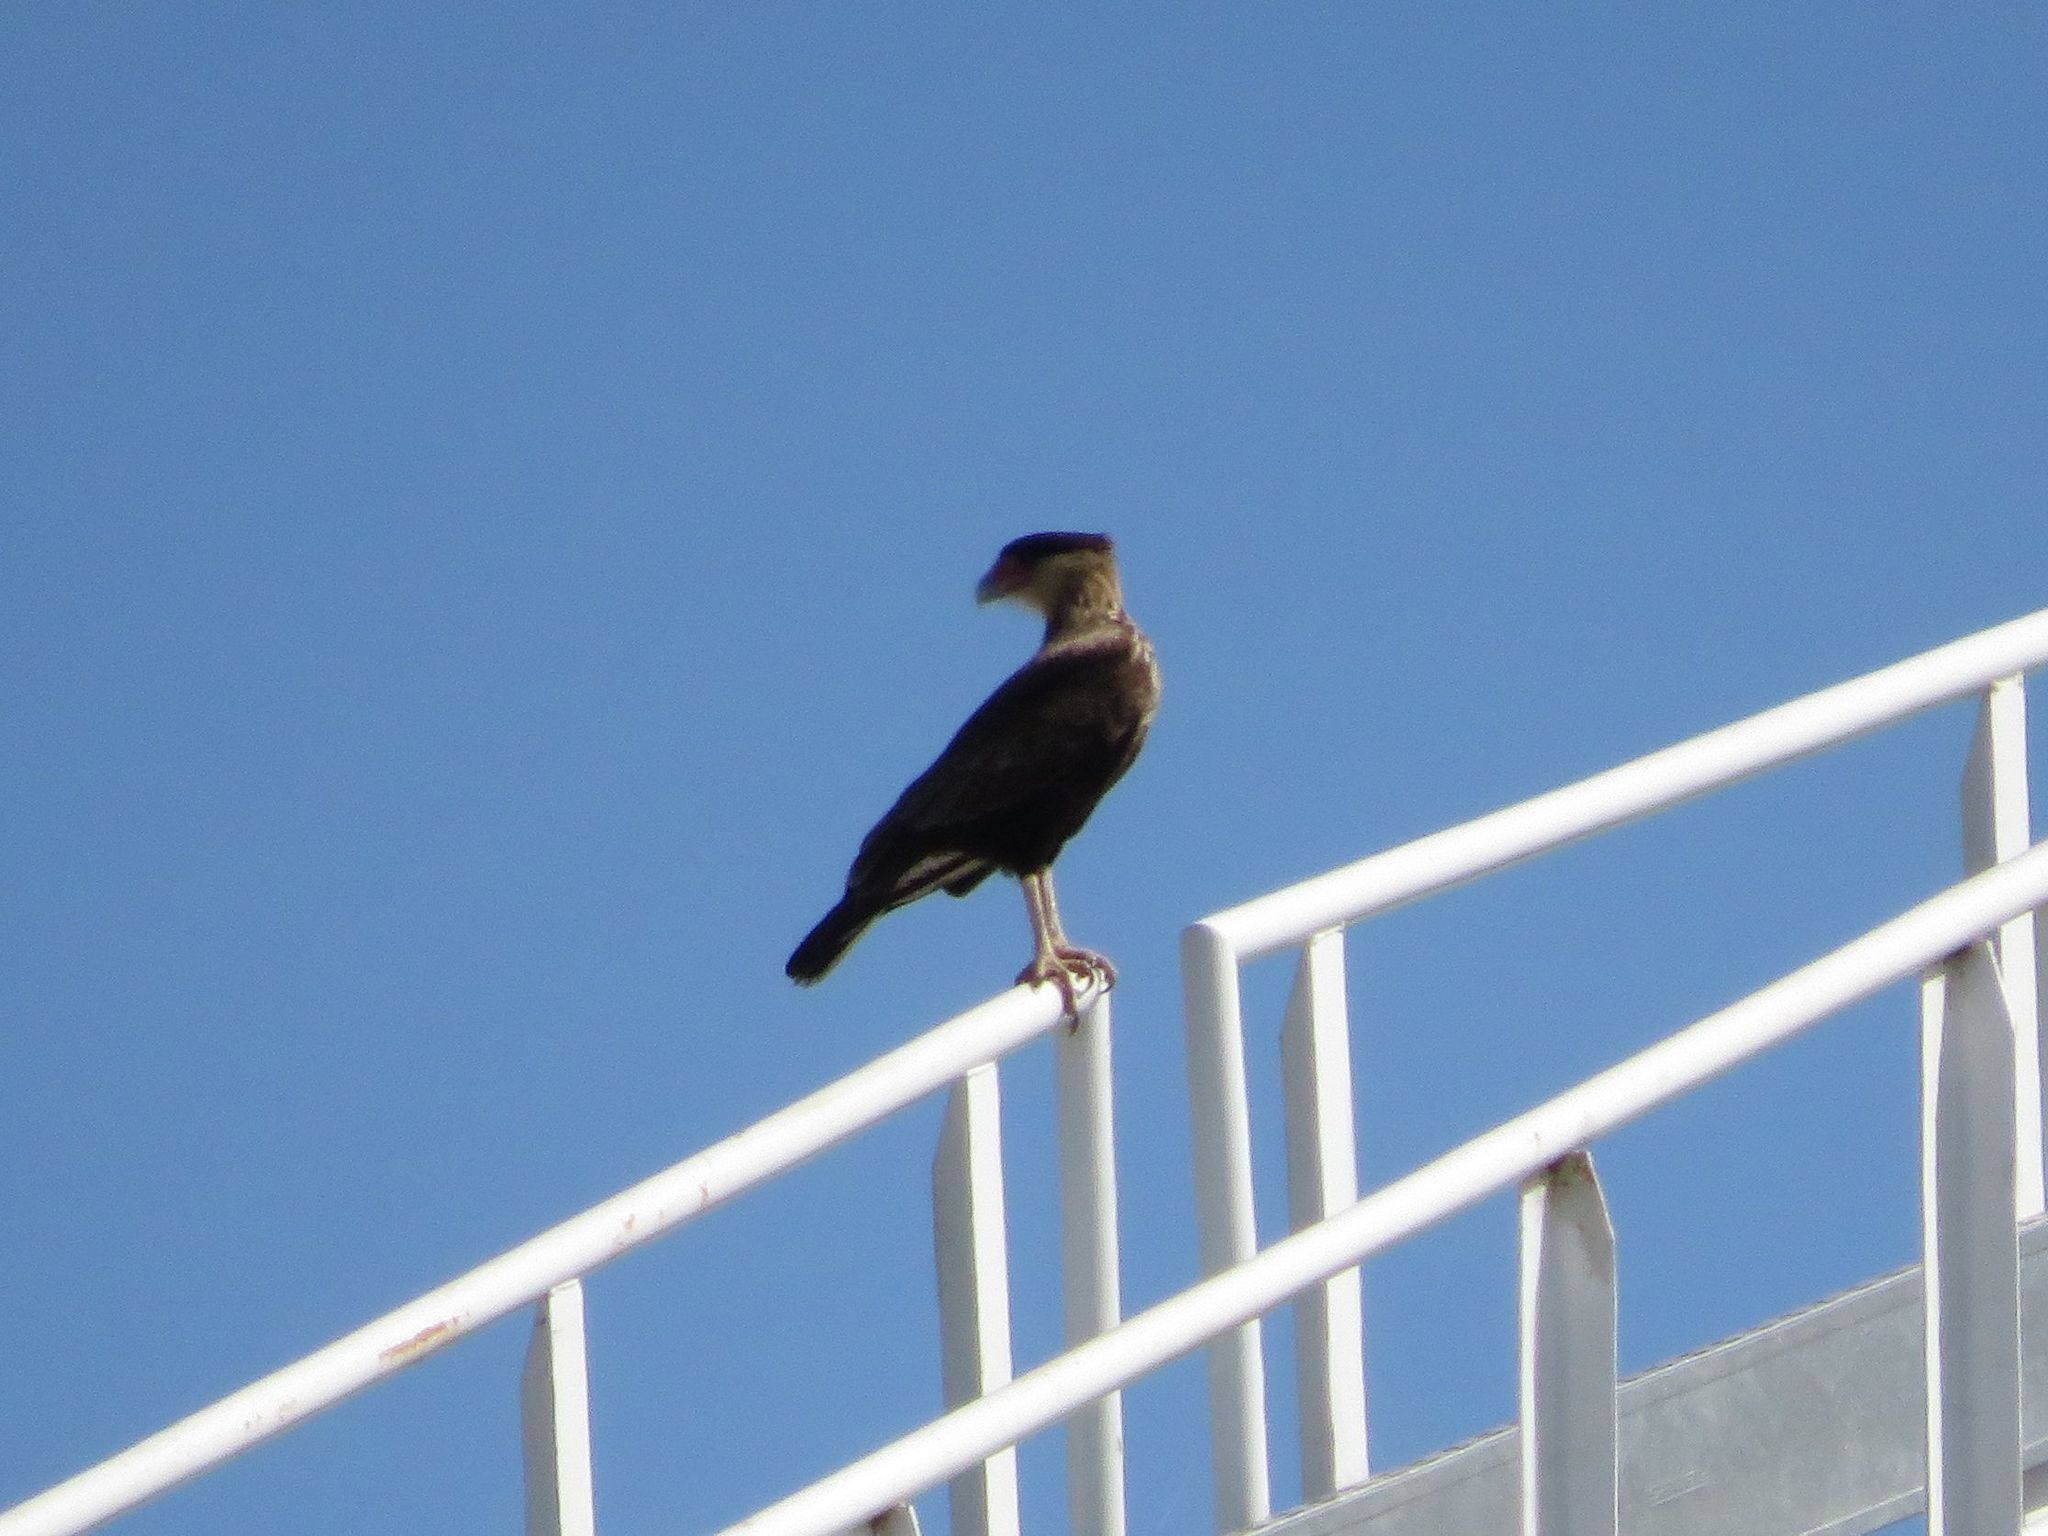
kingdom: Animalia
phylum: Chordata
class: Aves
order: Falconiformes
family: Falconidae
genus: Caracara
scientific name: Caracara plancus
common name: Southern caracara
